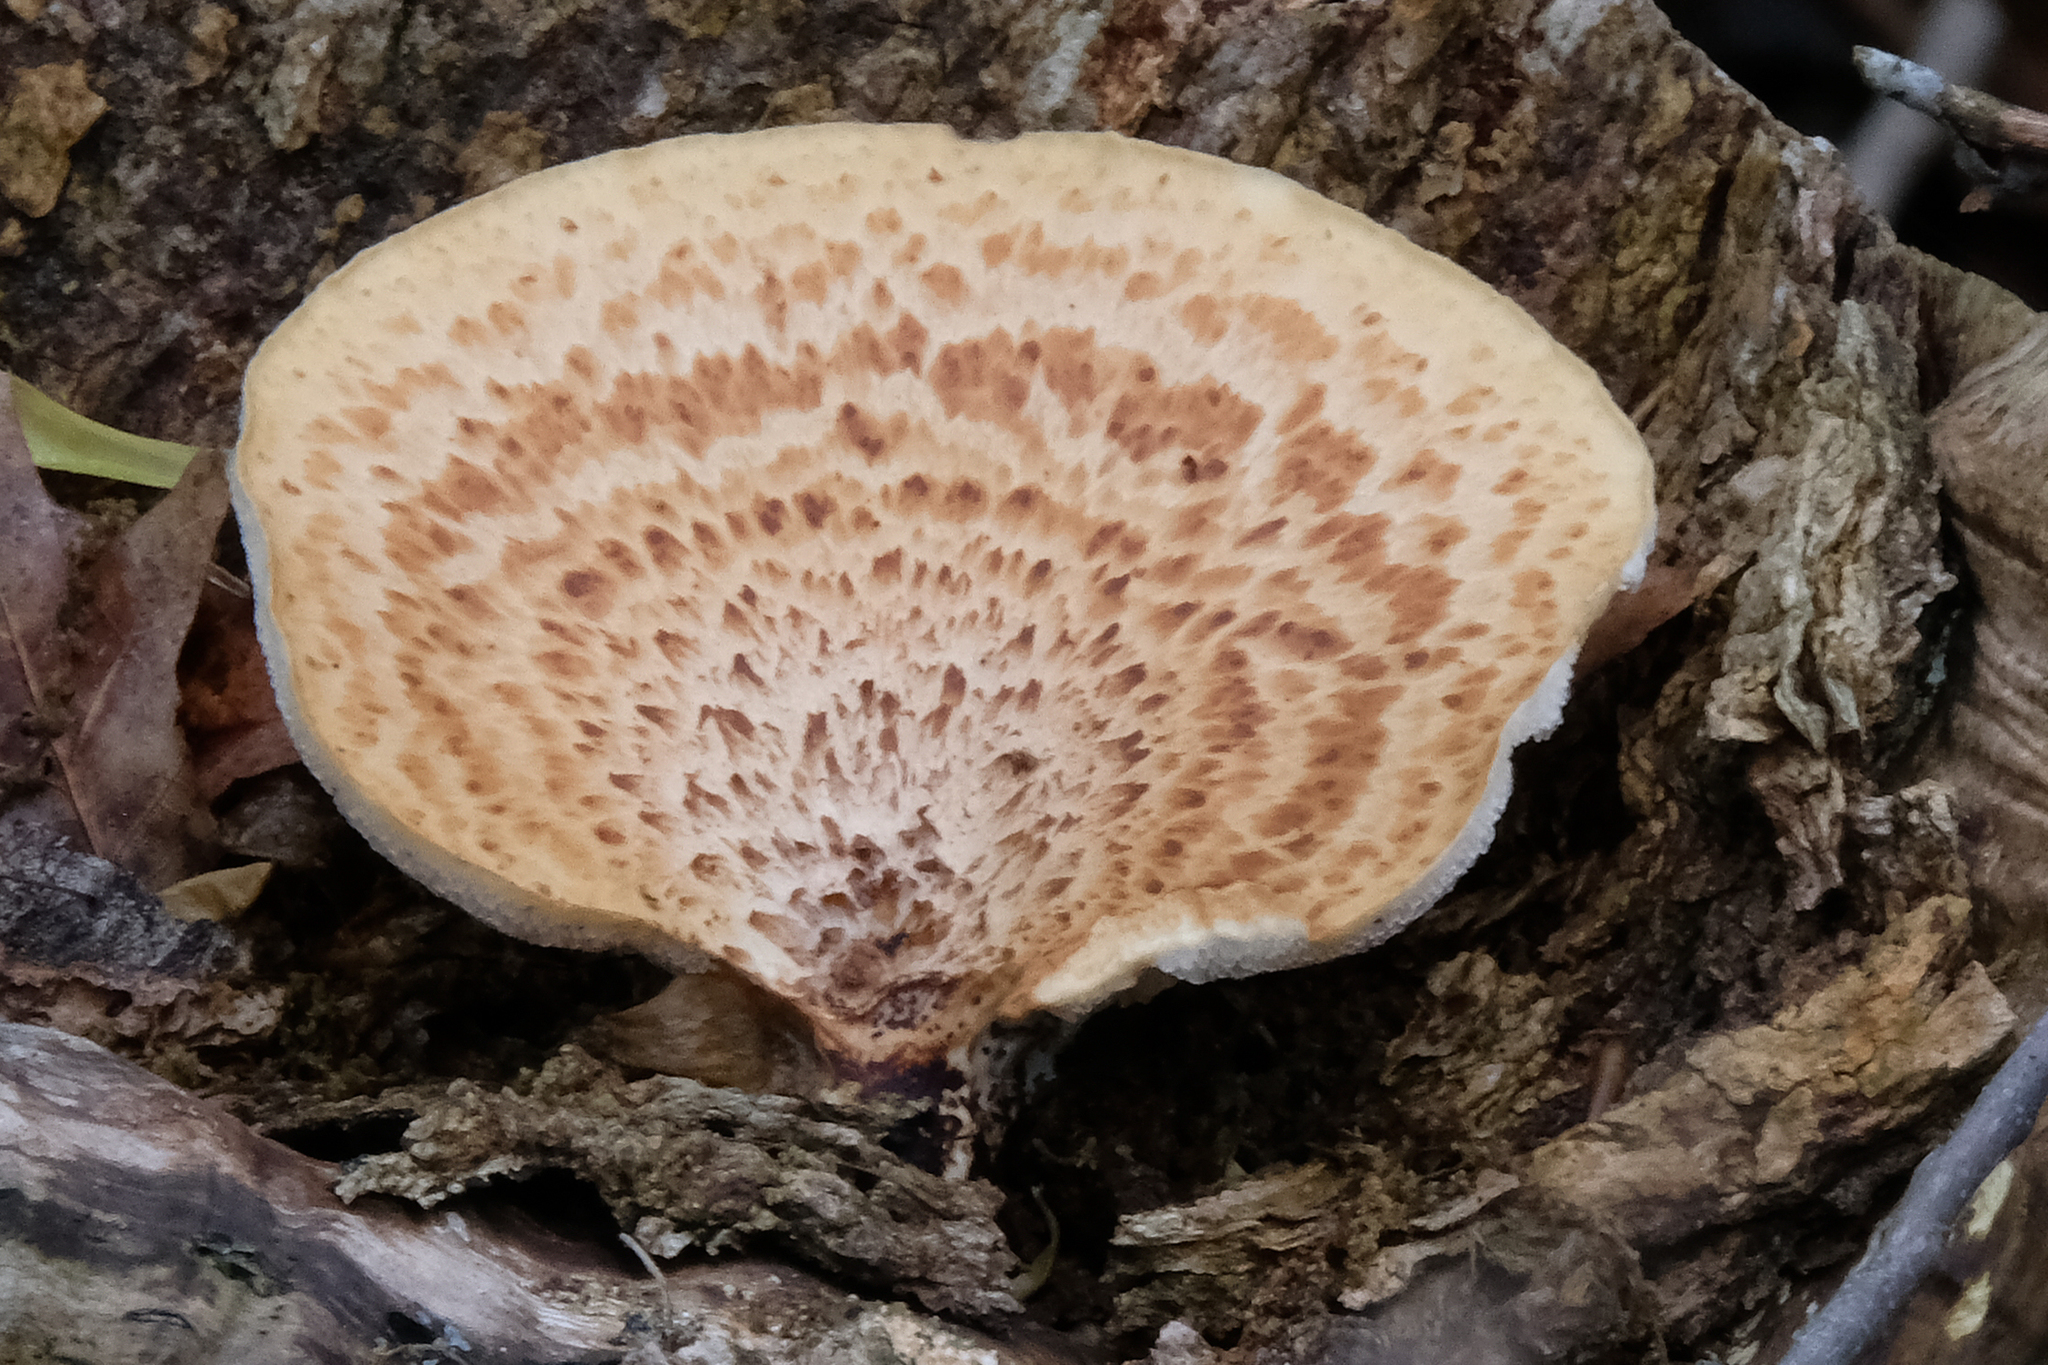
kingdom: Fungi
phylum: Basidiomycota
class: Agaricomycetes
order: Polyporales
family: Polyporaceae
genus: Cerioporus
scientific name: Cerioporus squamosus
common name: Dryad's saddle
